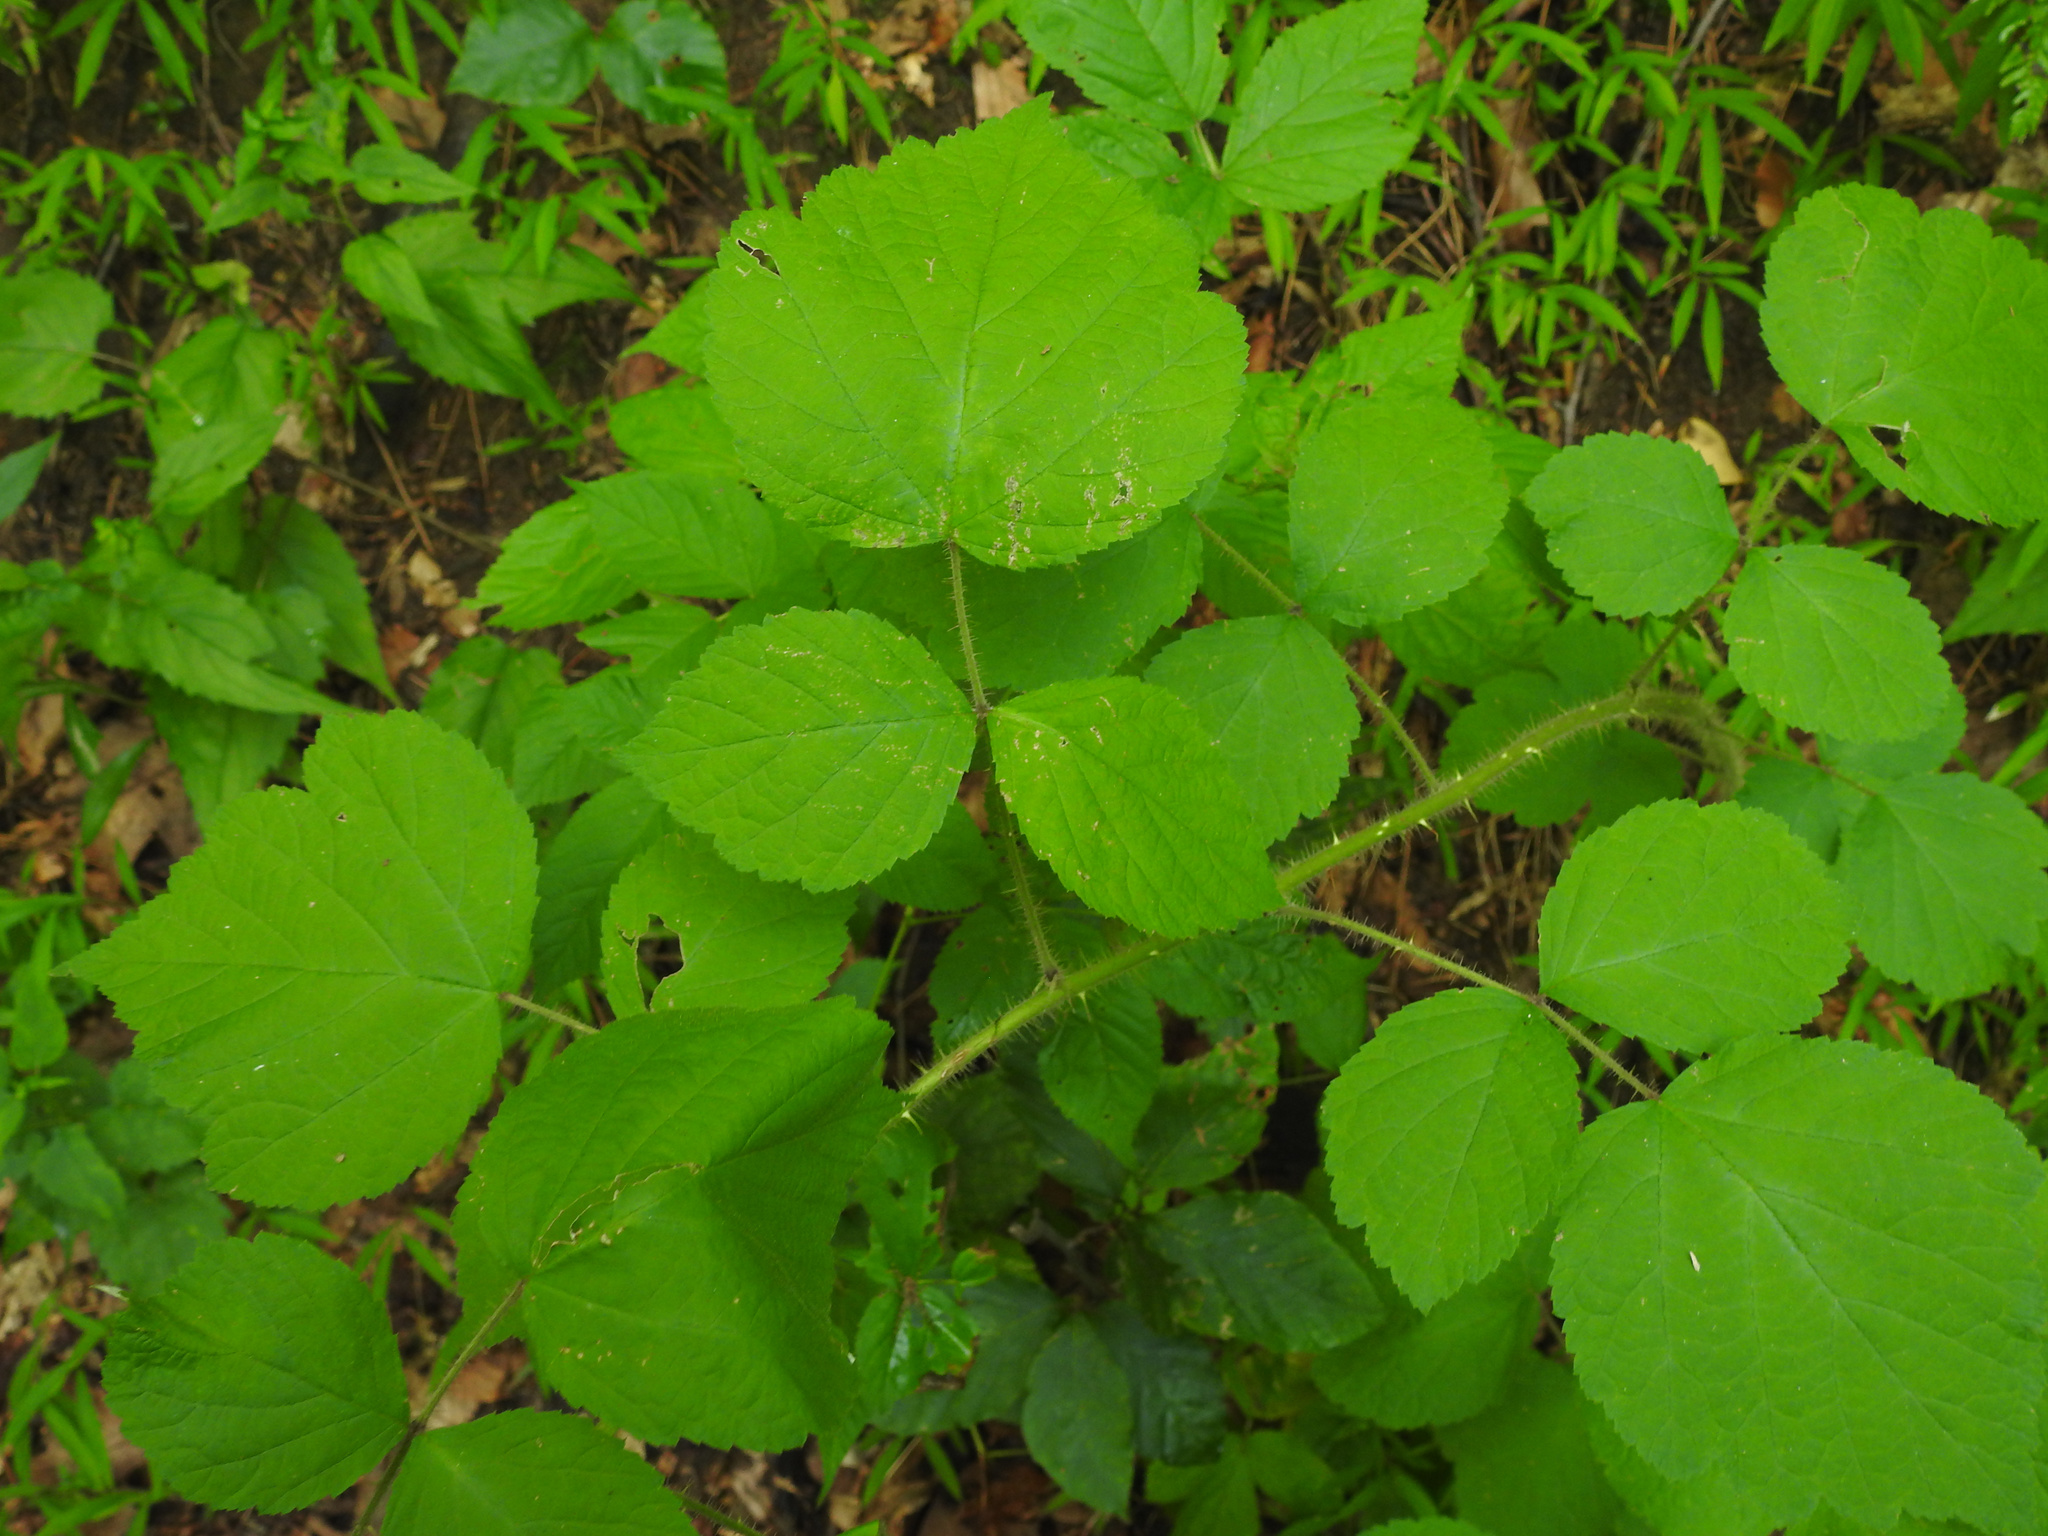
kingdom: Plantae
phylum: Tracheophyta
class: Magnoliopsida
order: Rosales
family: Rosaceae
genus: Rubus
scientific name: Rubus phoenicolasius
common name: Japanese wineberry
